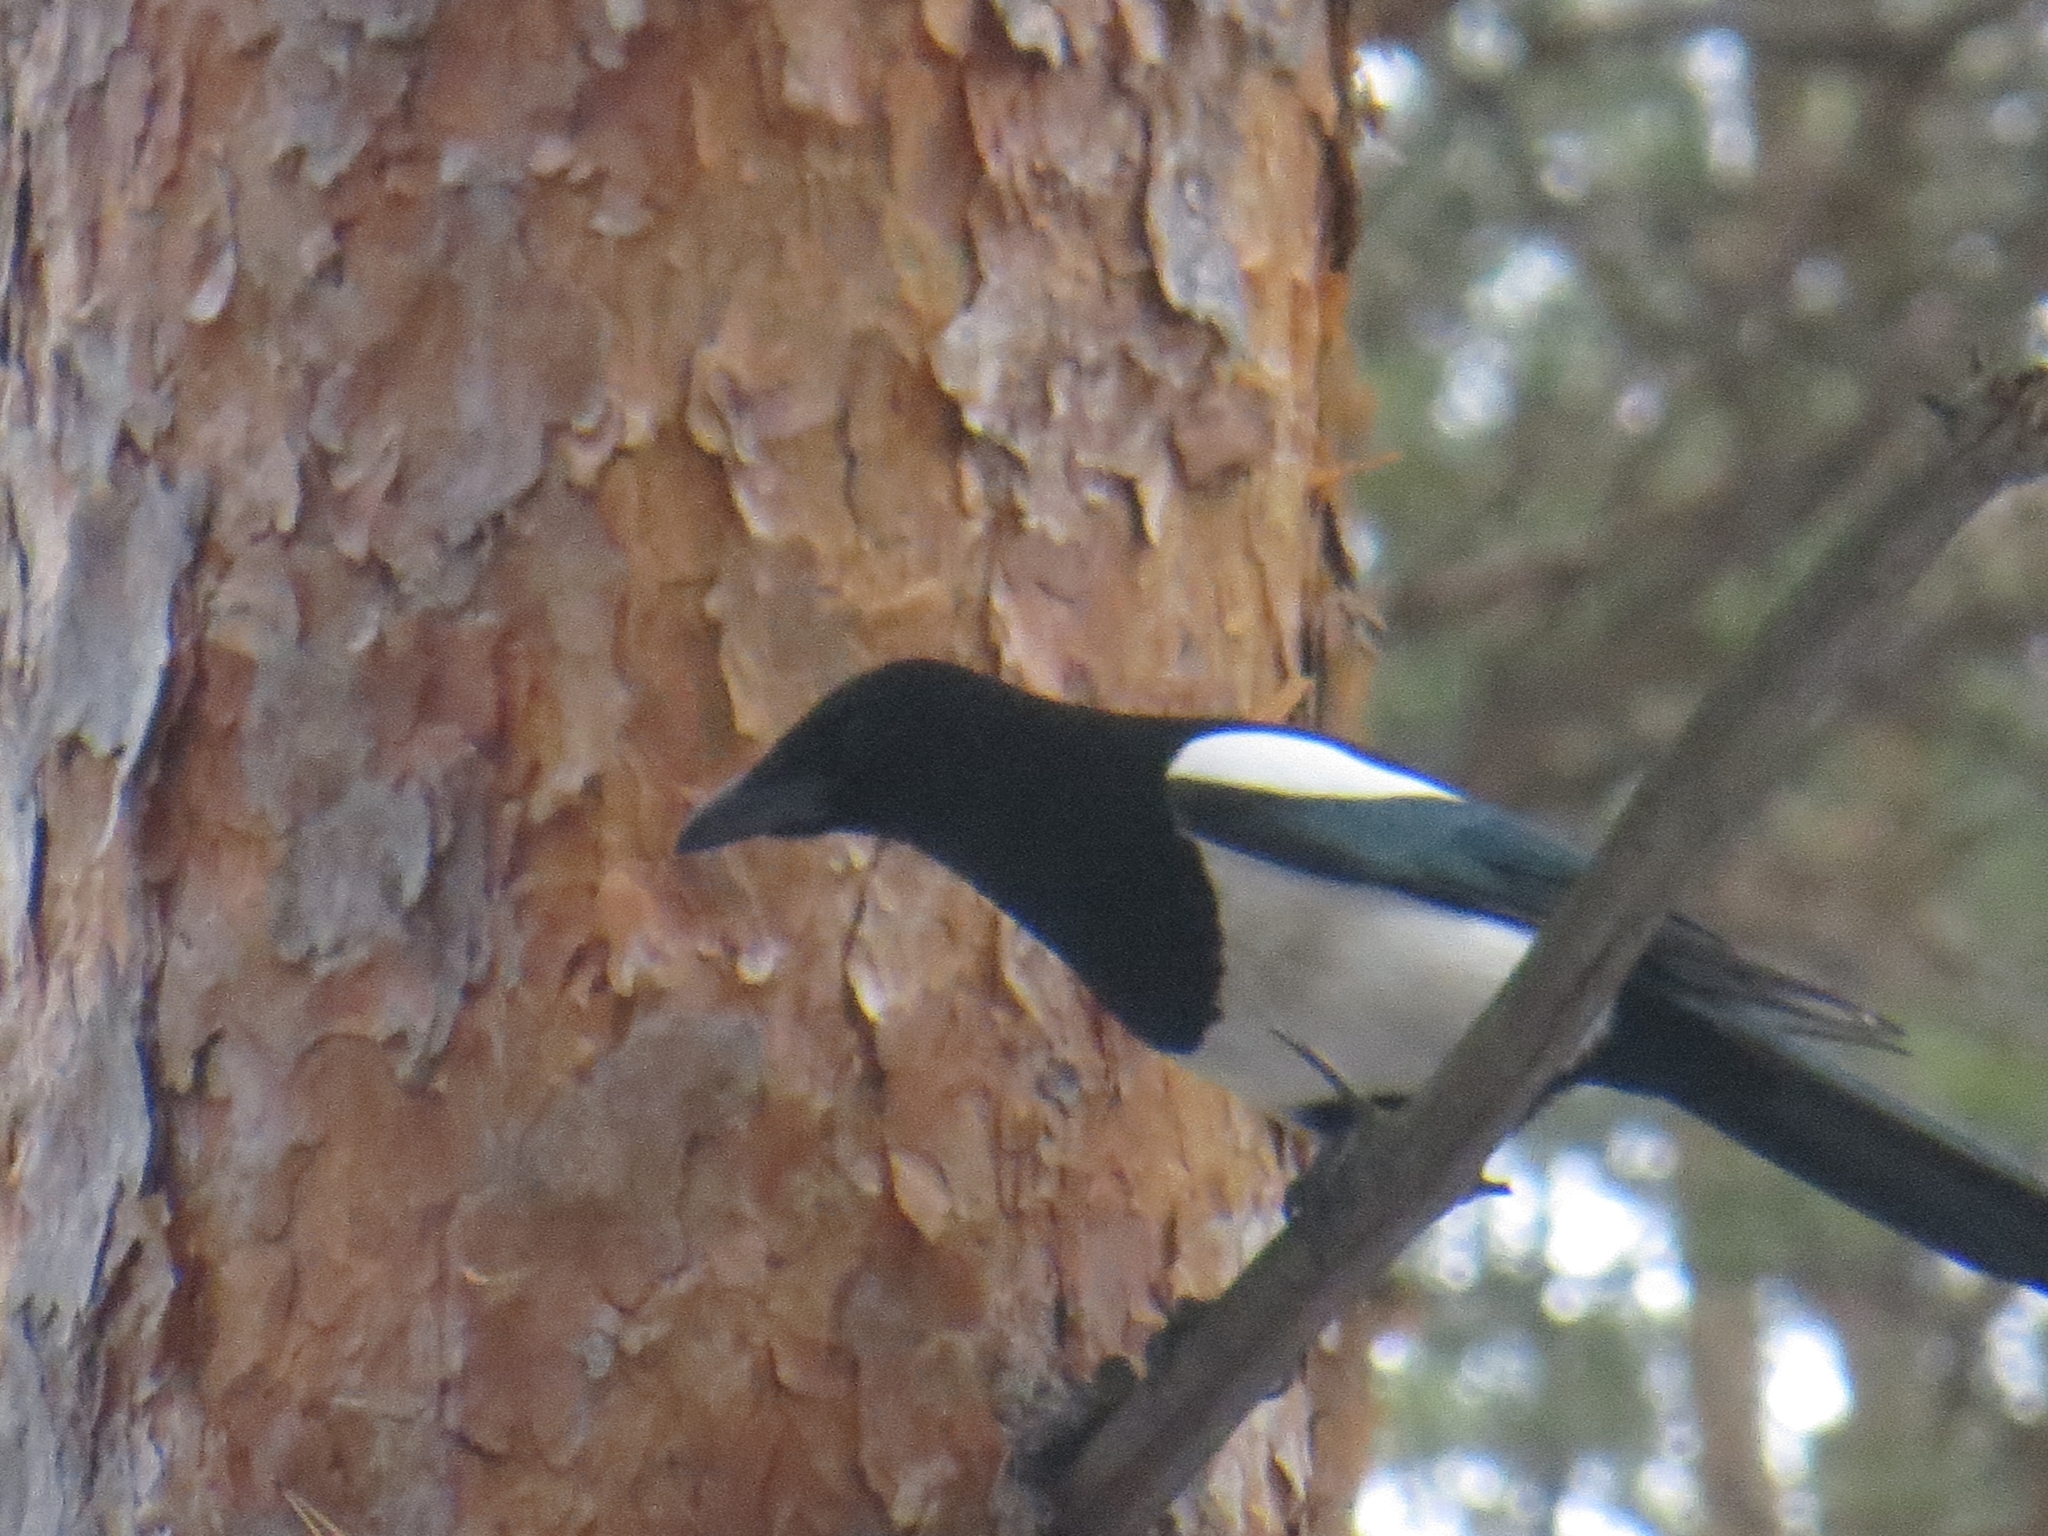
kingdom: Animalia
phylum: Chordata
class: Aves
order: Passeriformes
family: Corvidae
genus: Pica
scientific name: Pica pica
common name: Eurasian magpie
